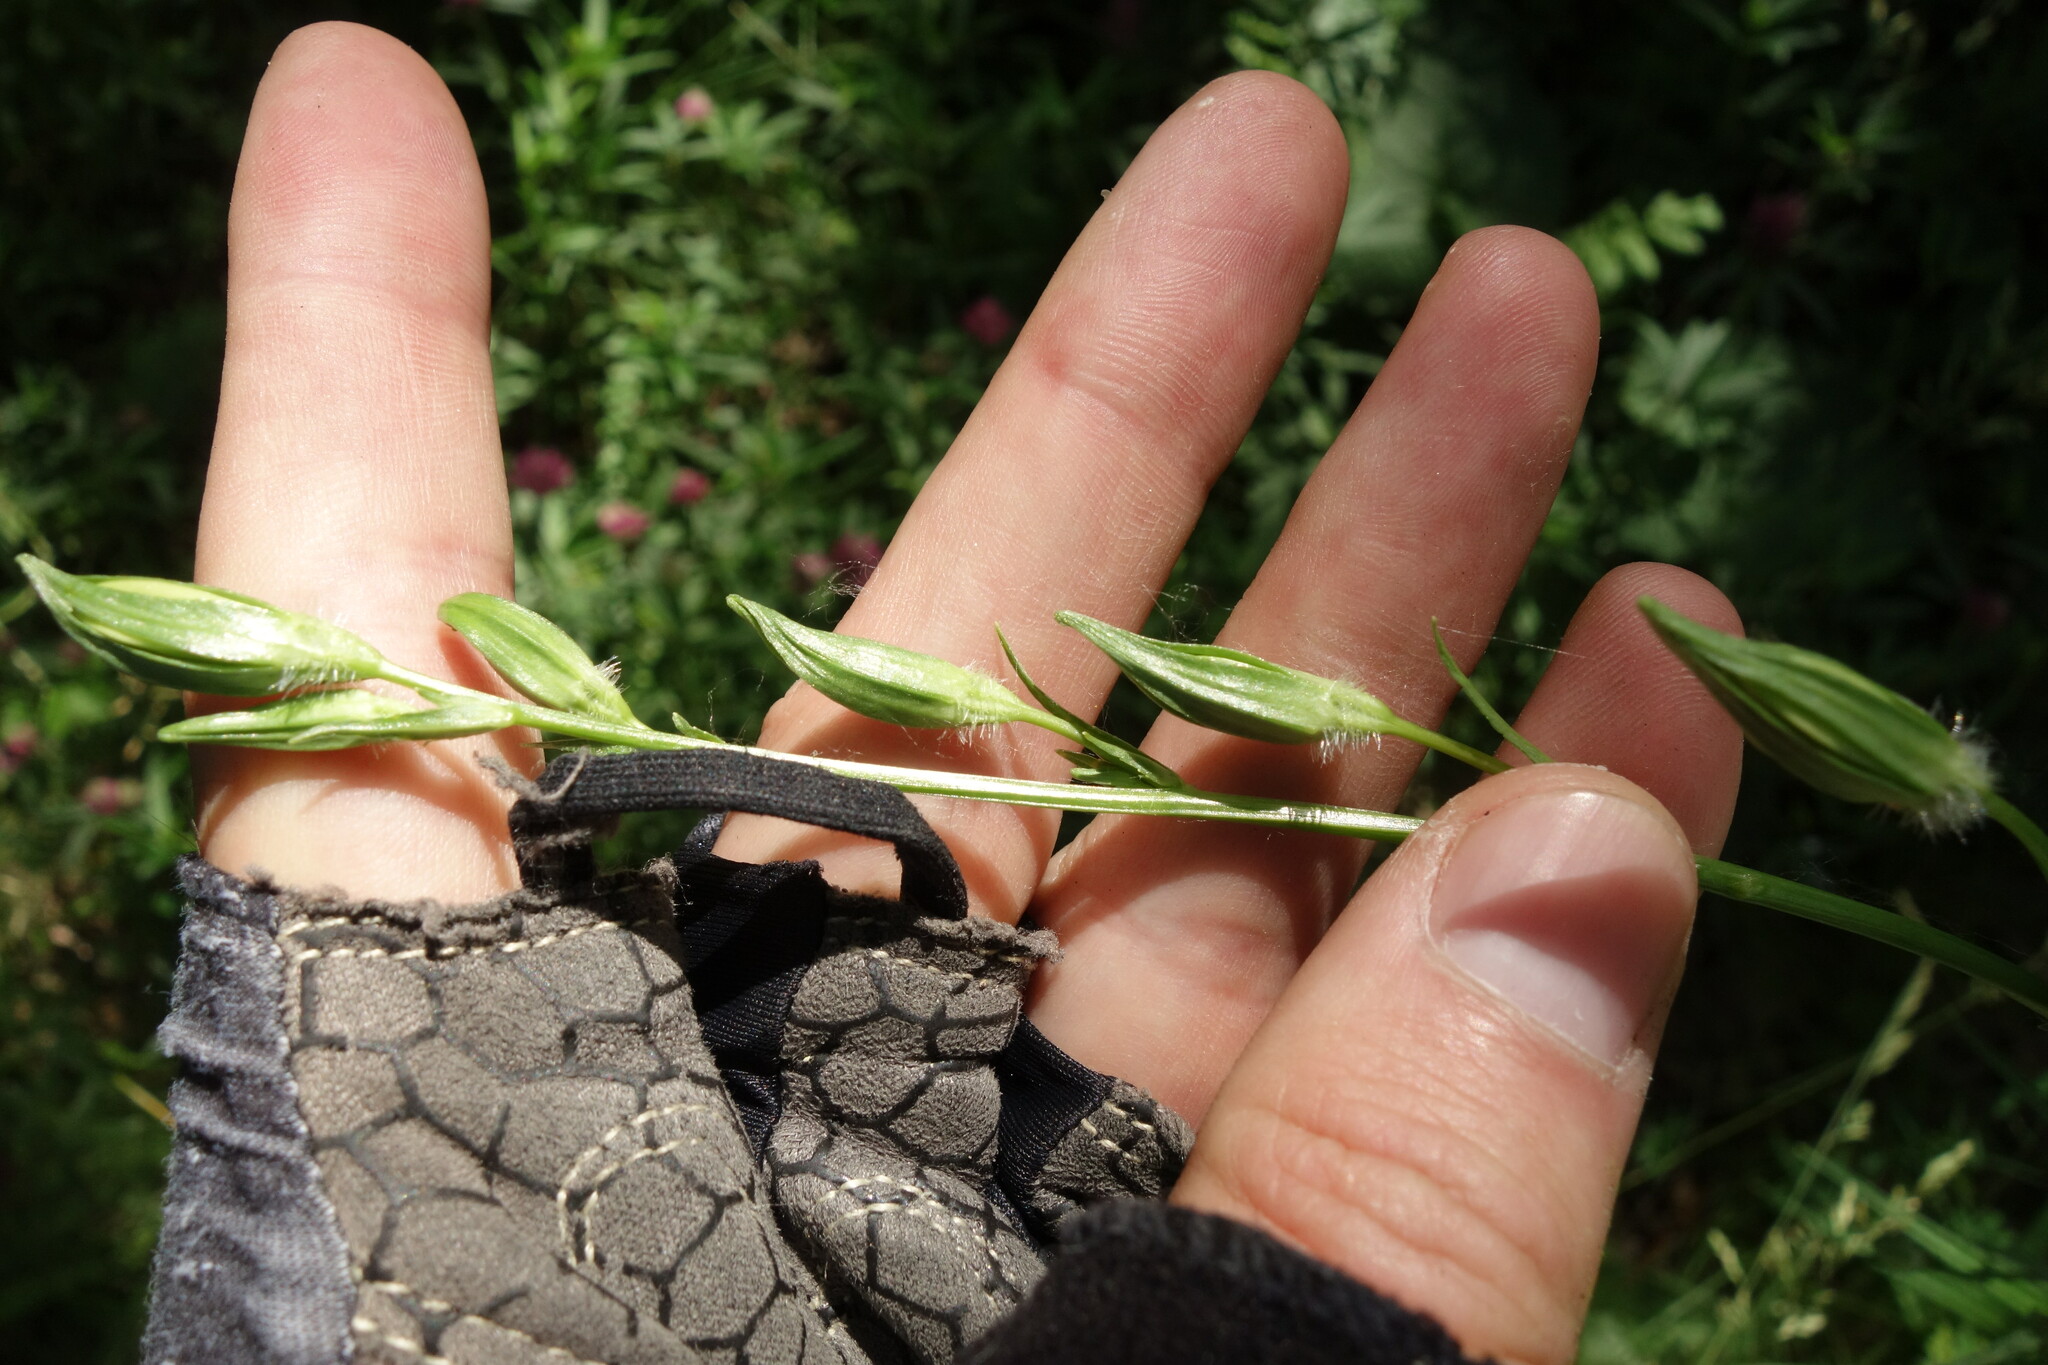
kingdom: Plantae
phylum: Tracheophyta
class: Magnoliopsida
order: Asterales
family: Campanulaceae
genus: Campanula
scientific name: Campanula persicifolia
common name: Peach-leaved bellflower
